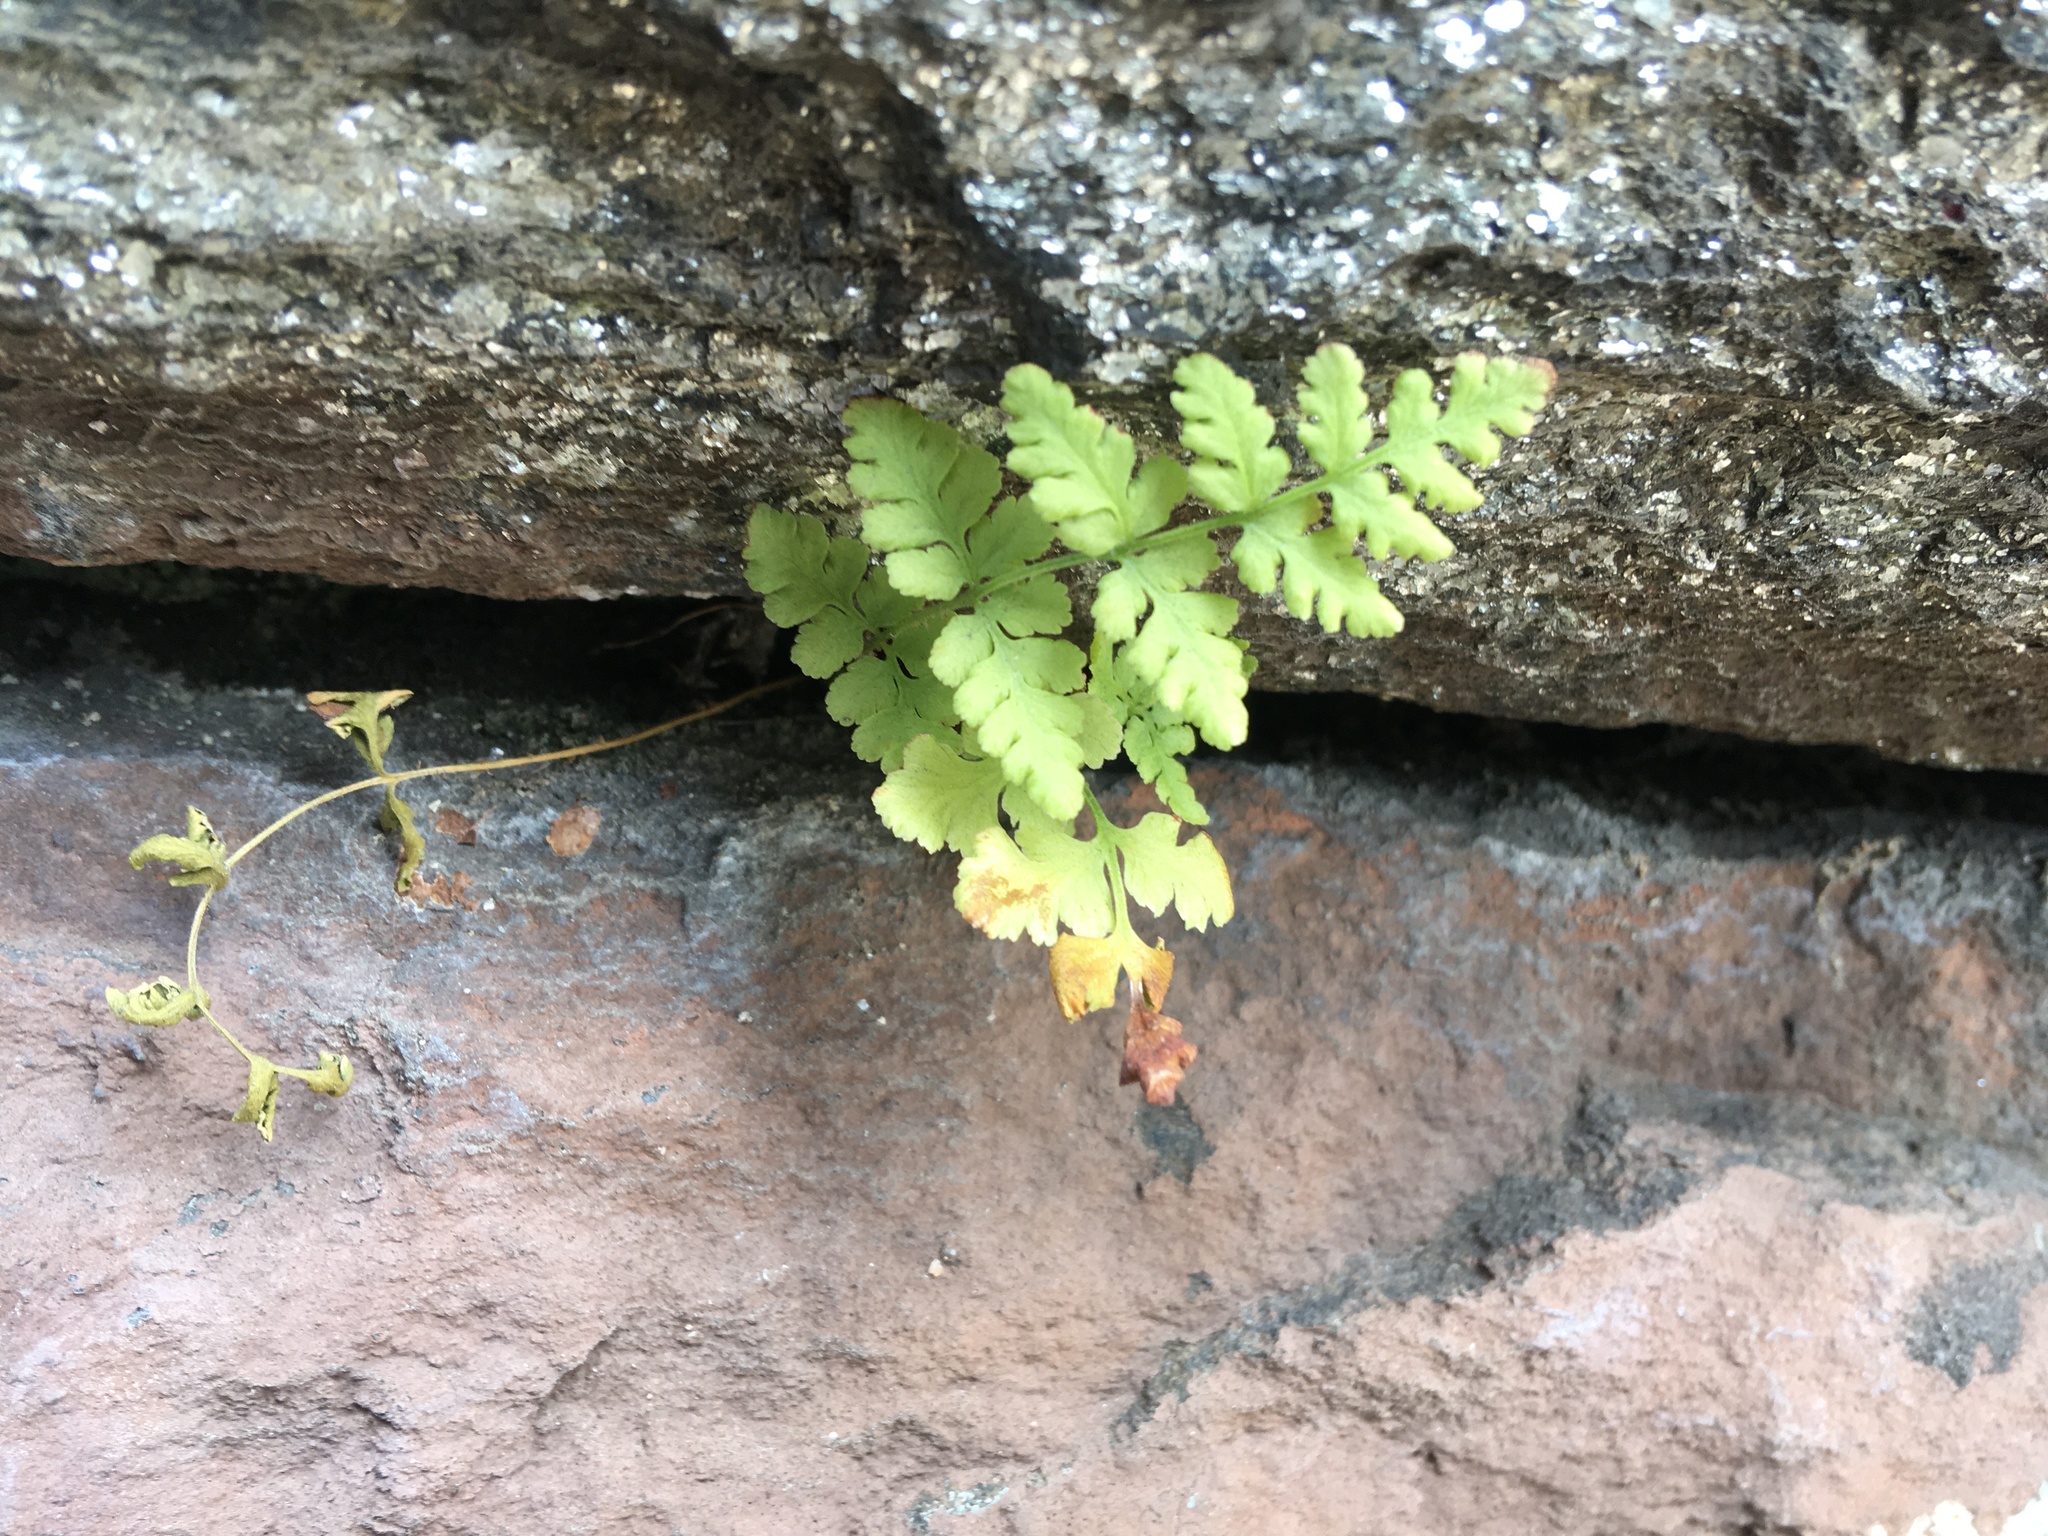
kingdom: Plantae
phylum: Tracheophyta
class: Polypodiopsida
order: Polypodiales
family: Woodsiaceae
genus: Physematium
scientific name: Physematium obtusum
